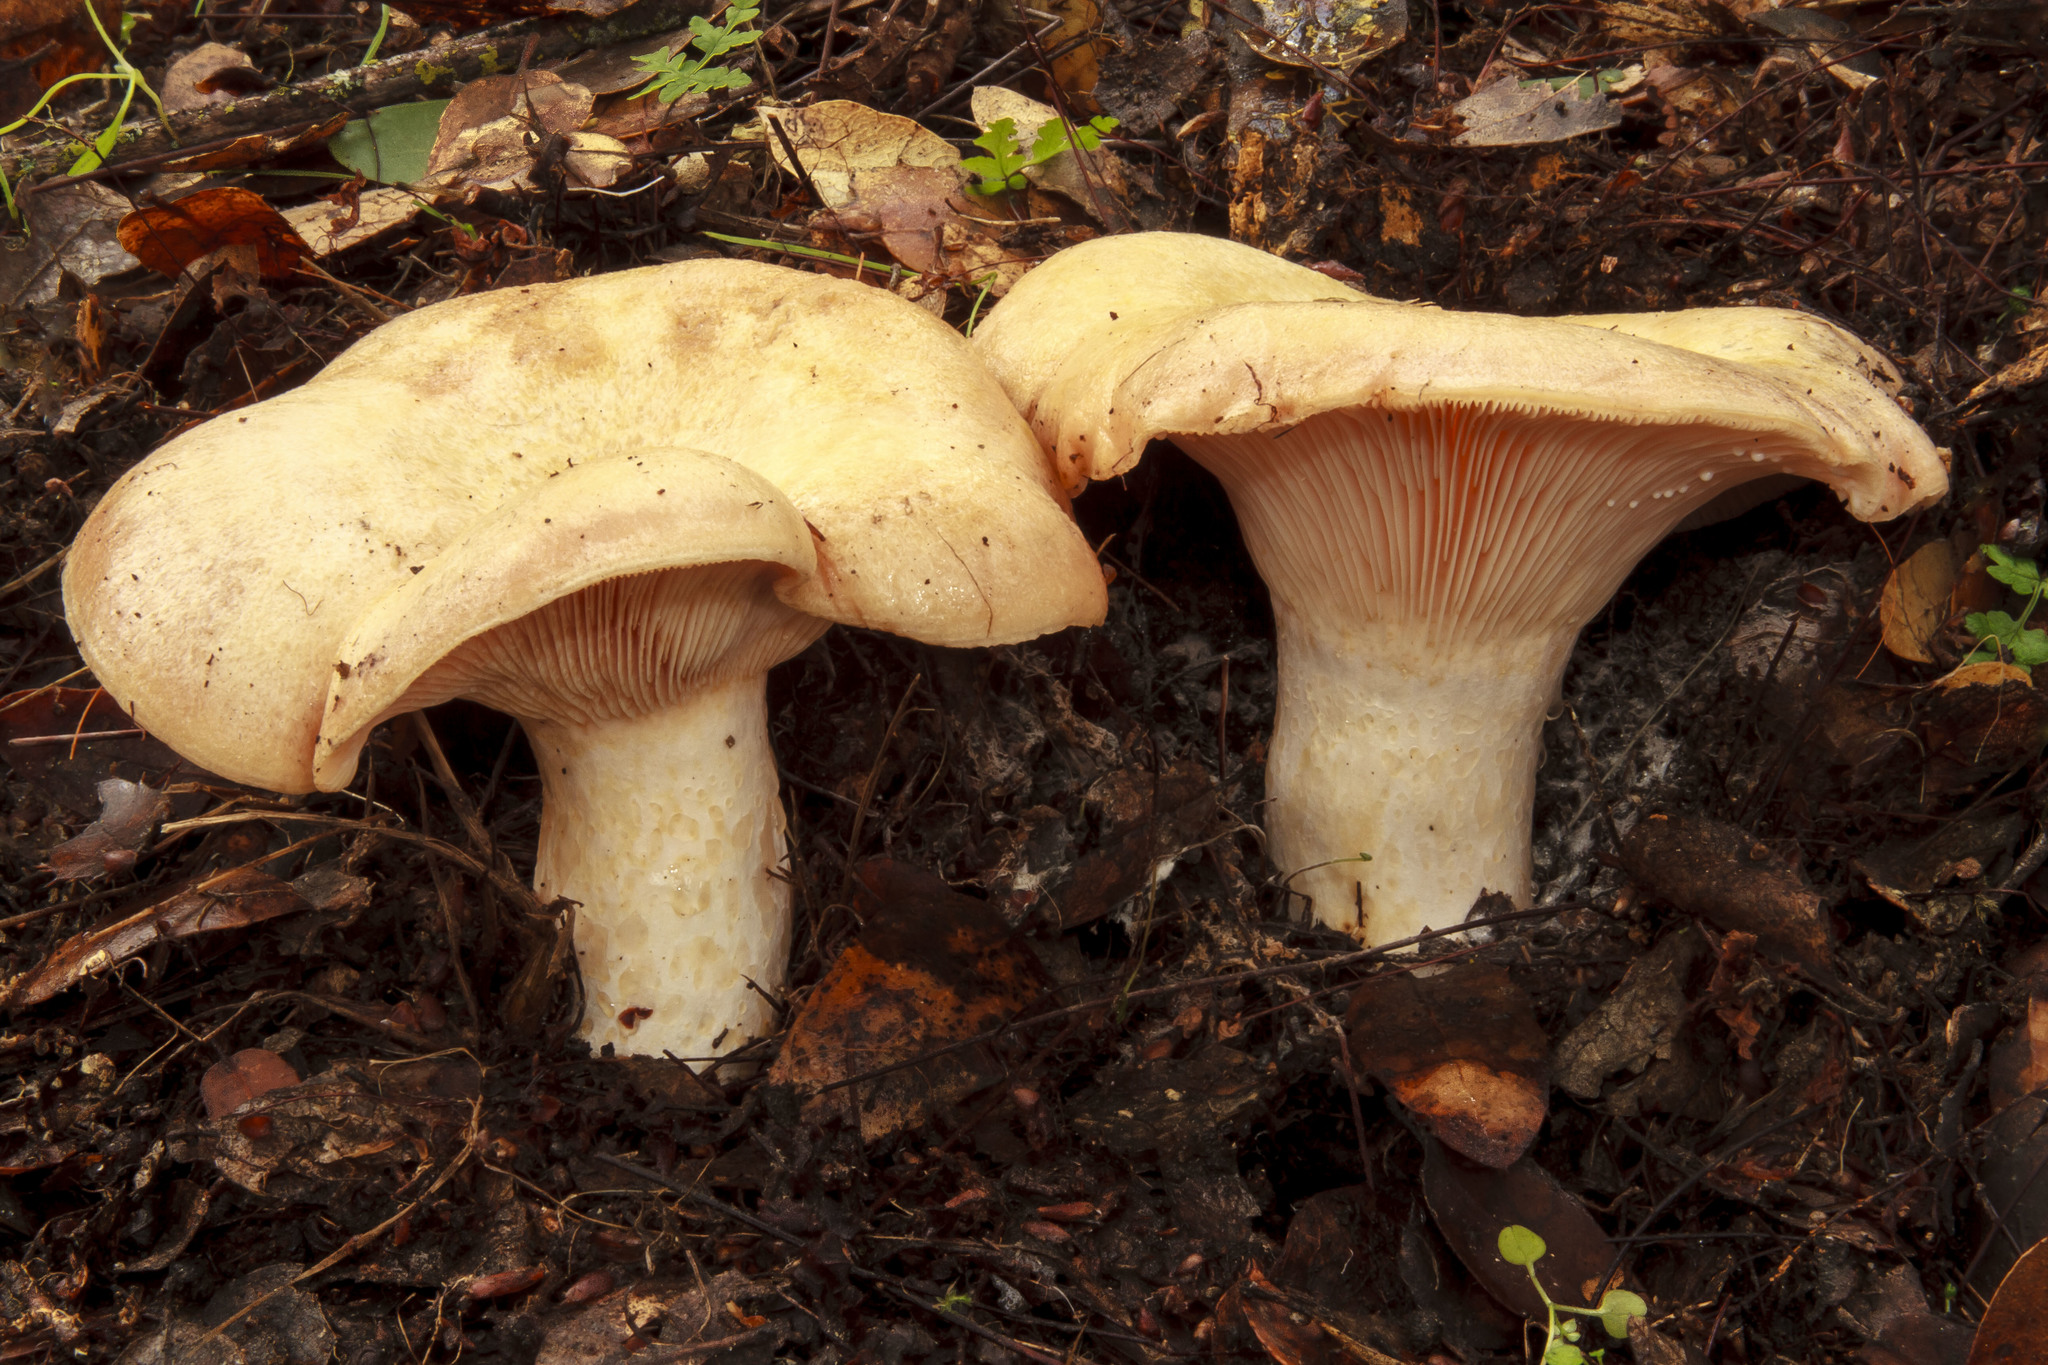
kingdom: Fungi
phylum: Basidiomycota
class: Agaricomycetes
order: Russulales
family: Russulaceae
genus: Lactarius
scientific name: Lactarius alnicola
